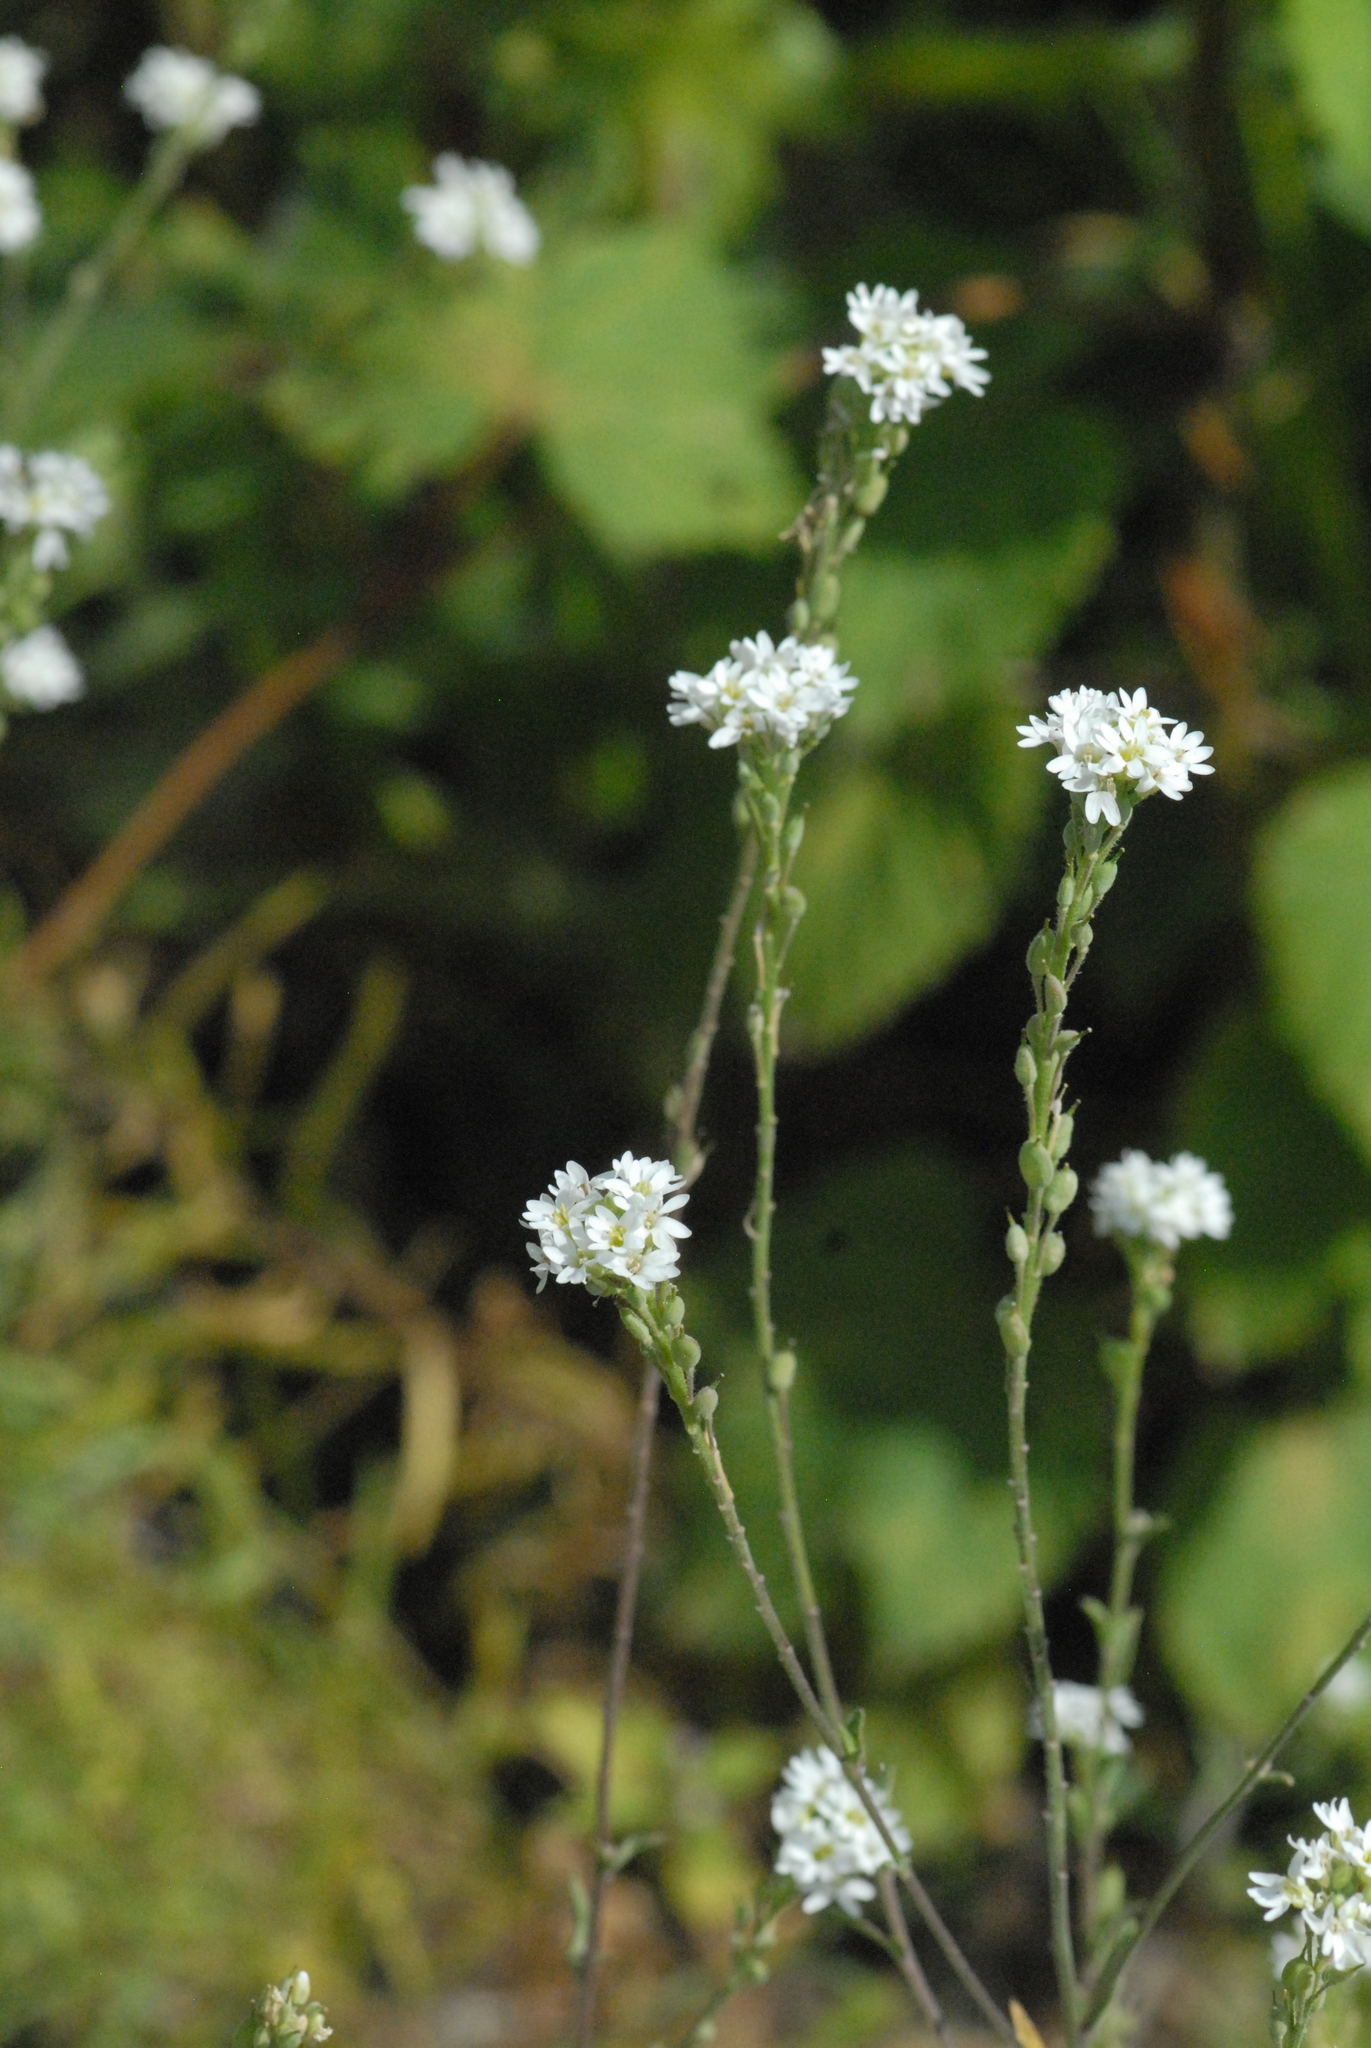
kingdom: Plantae
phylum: Tracheophyta
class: Magnoliopsida
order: Brassicales
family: Brassicaceae
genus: Berteroa
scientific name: Berteroa incana
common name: Hoary alison
